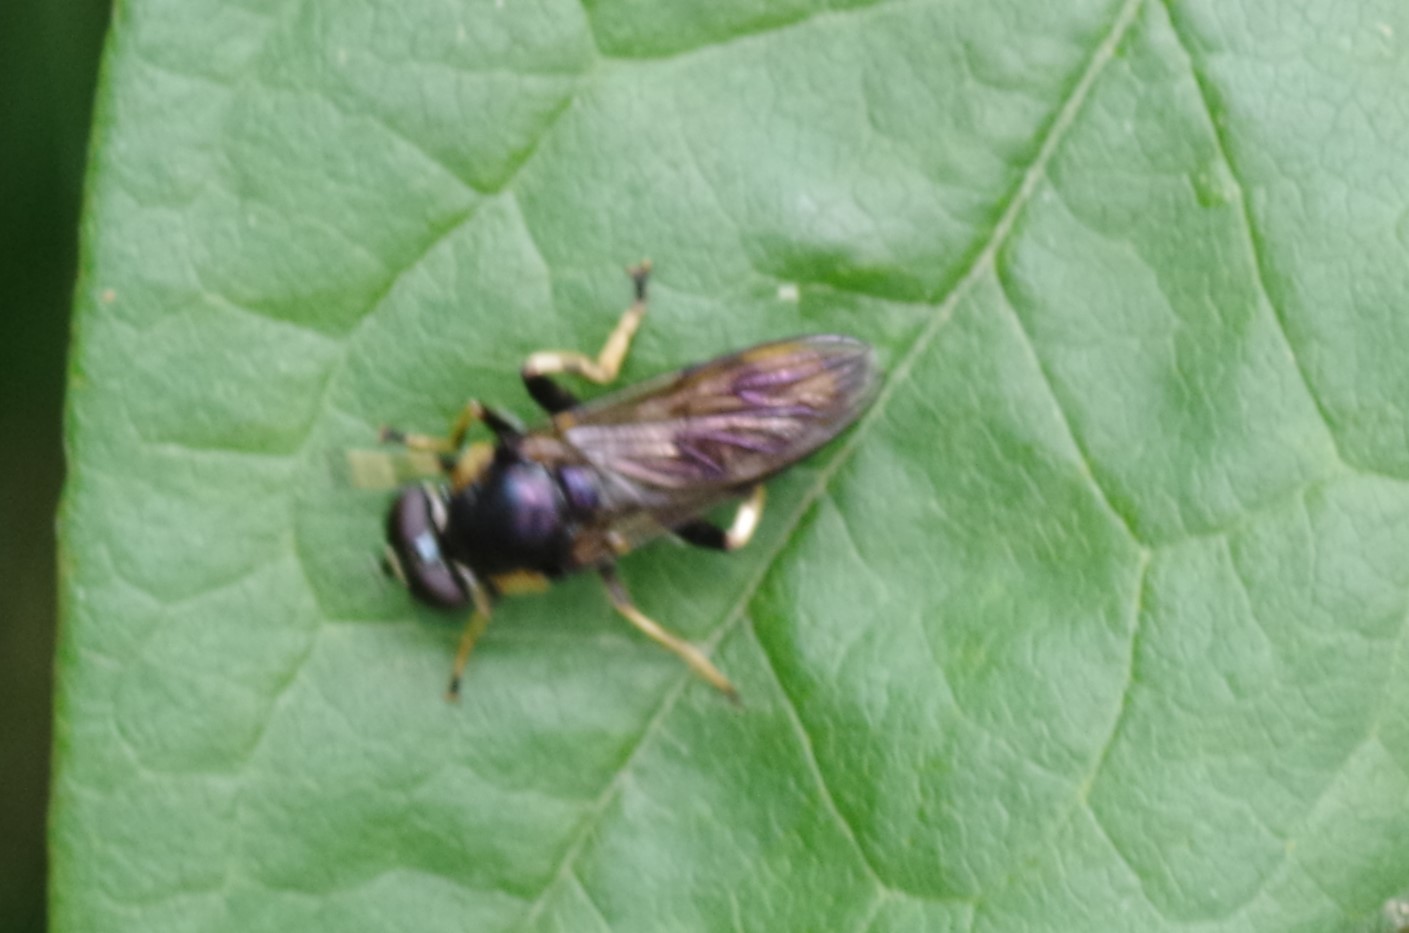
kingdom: Animalia
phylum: Arthropoda
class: Insecta
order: Diptera
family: Syrphidae
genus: Xylota
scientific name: Xylota sylvarum
